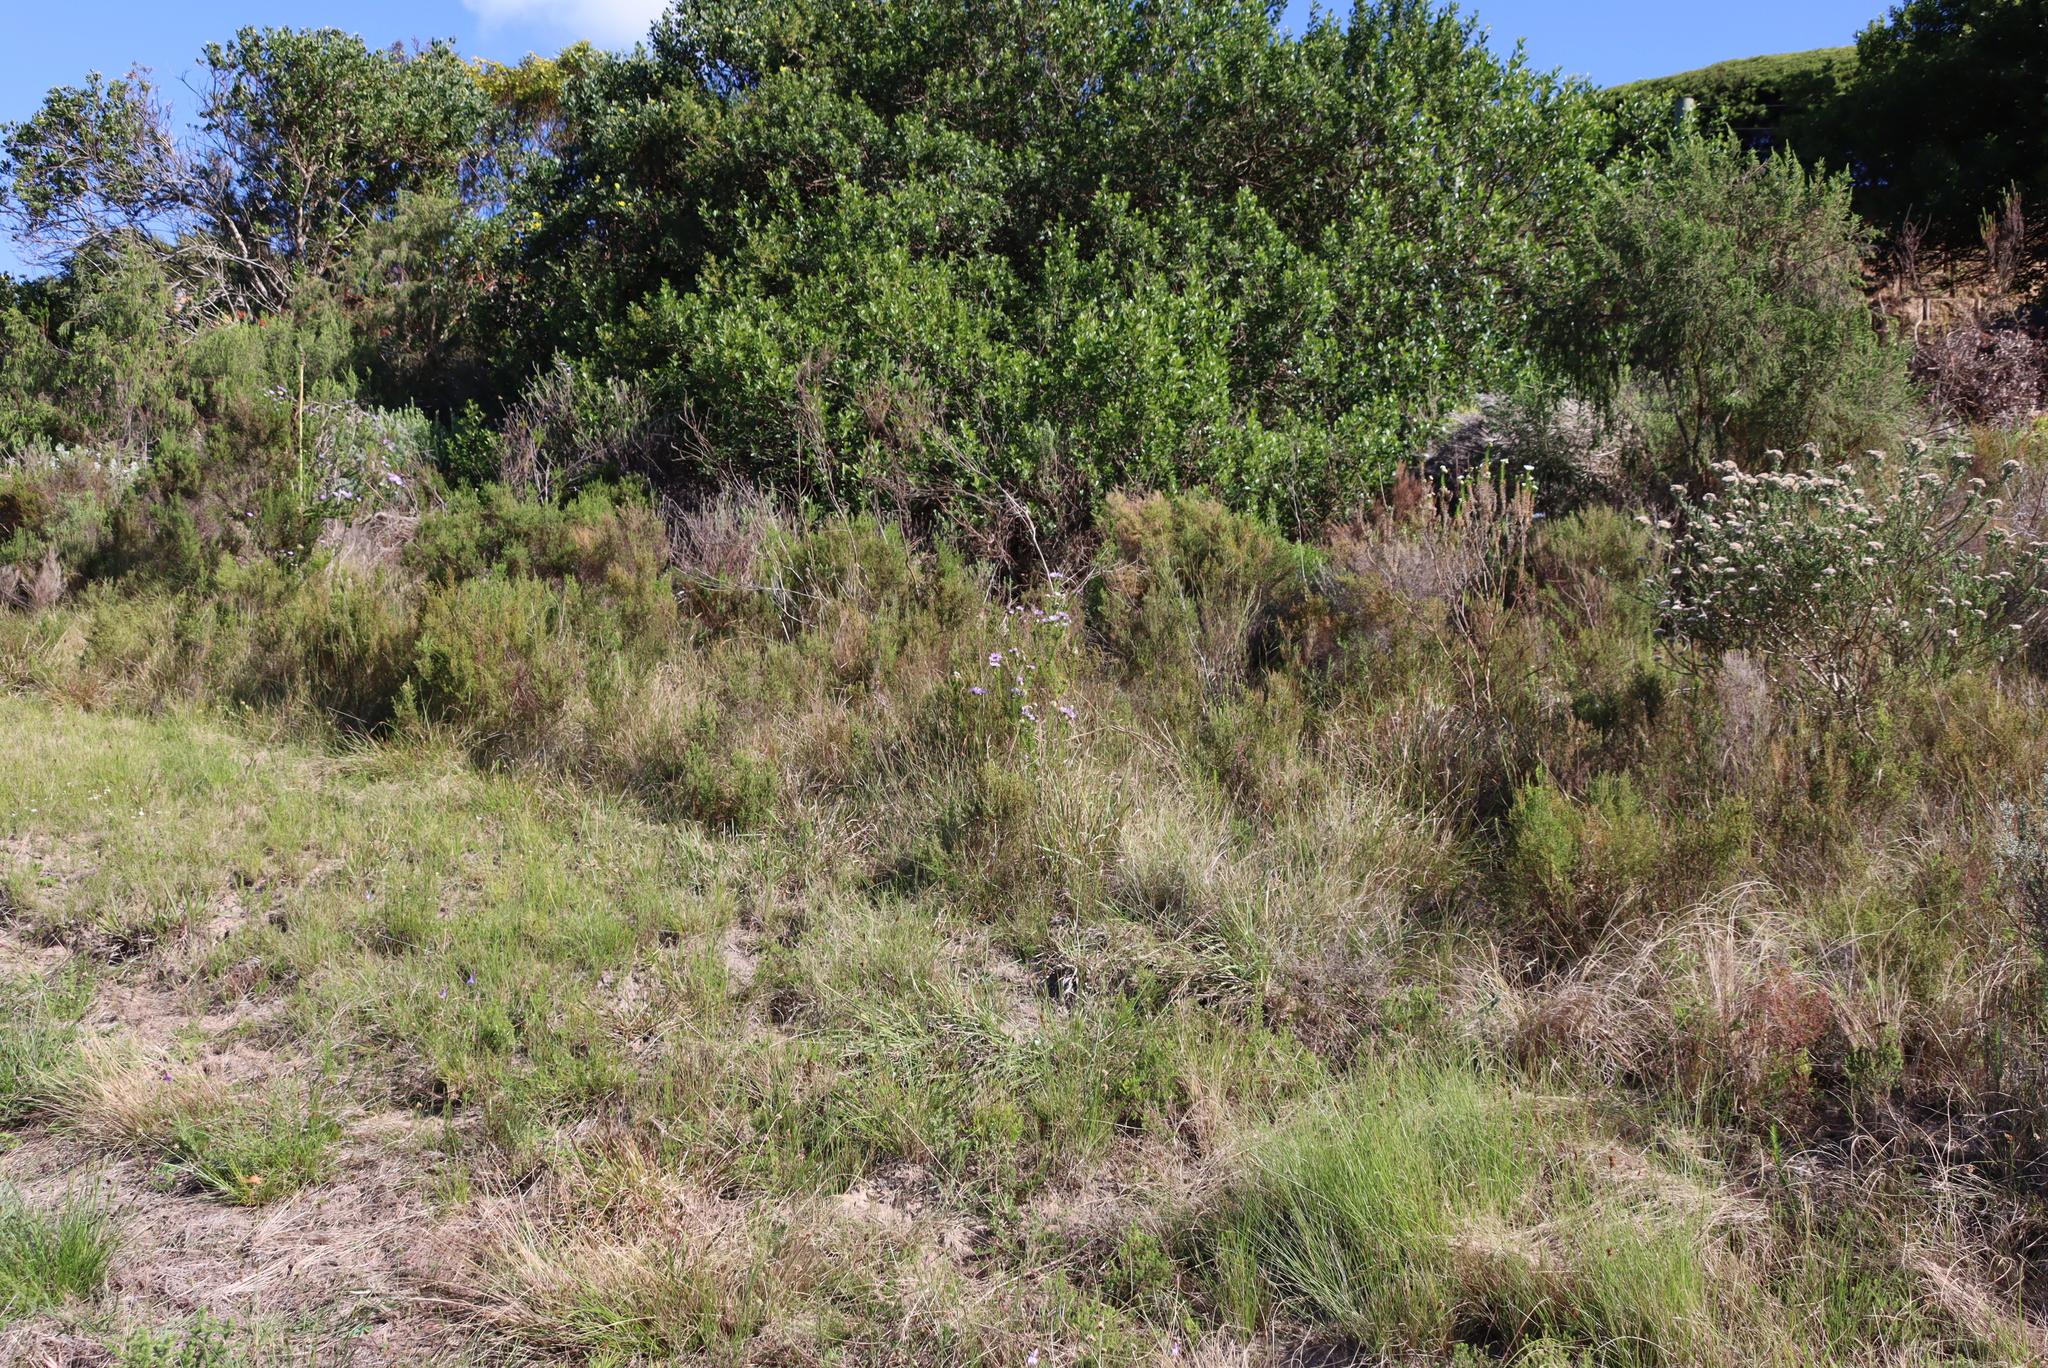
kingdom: Plantae
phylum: Tracheophyta
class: Magnoliopsida
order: Asterales
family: Asteraceae
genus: Felicia
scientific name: Felicia echinata
